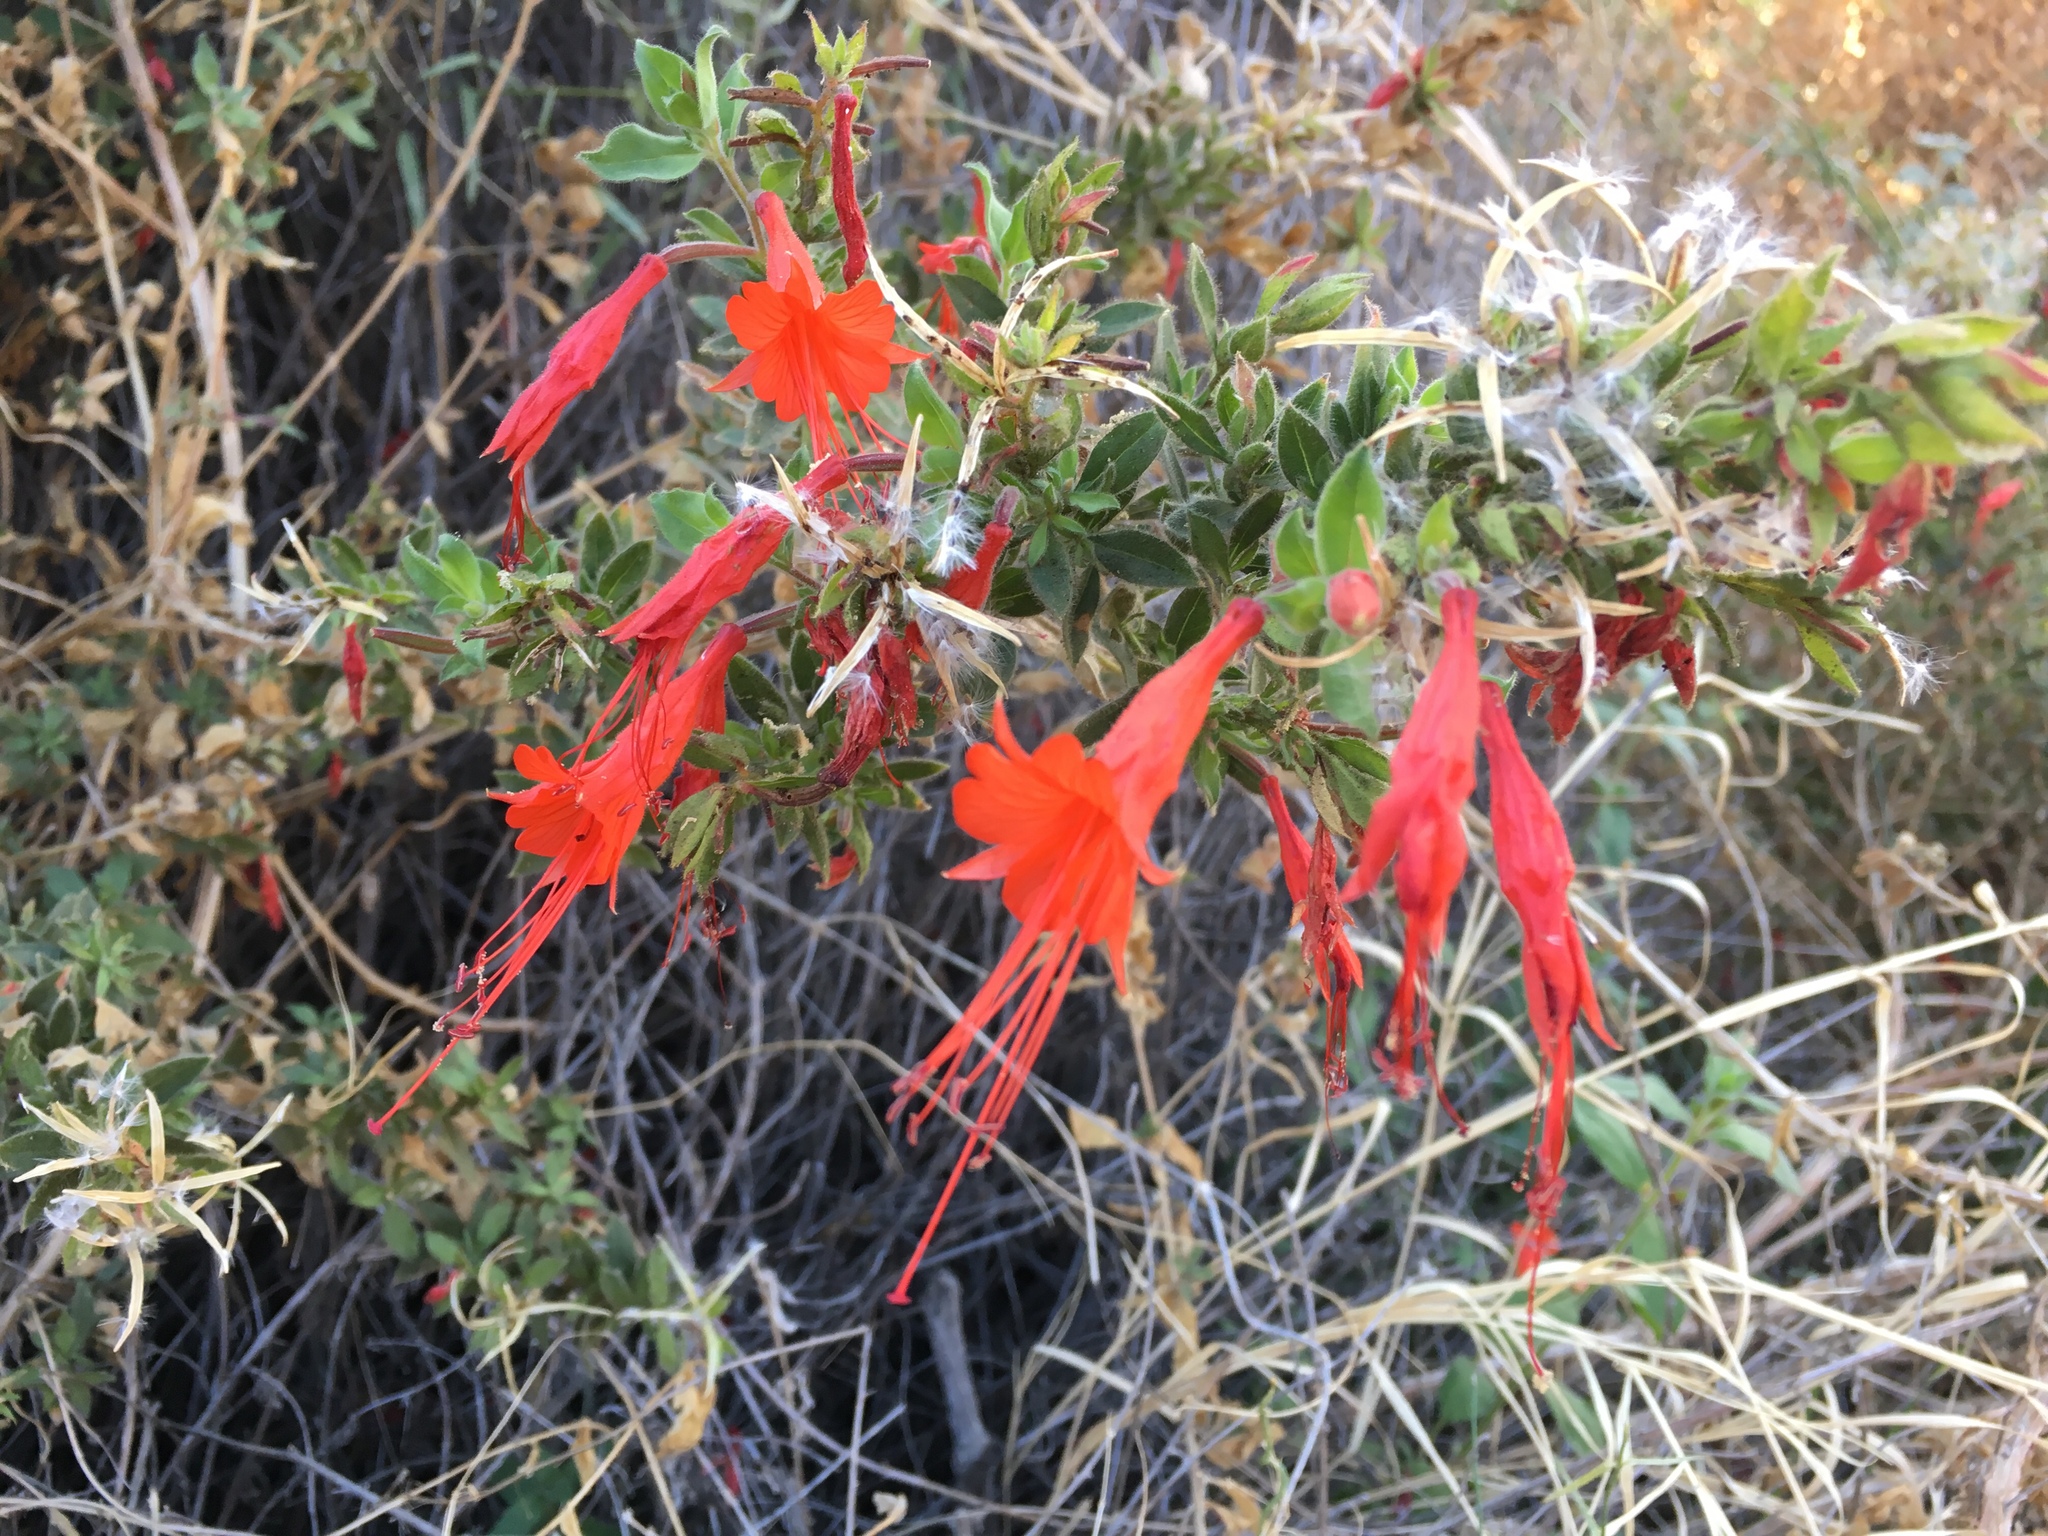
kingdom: Plantae
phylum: Tracheophyta
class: Magnoliopsida
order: Myrtales
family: Onagraceae
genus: Epilobium
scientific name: Epilobium canum
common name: California-fuchsia
